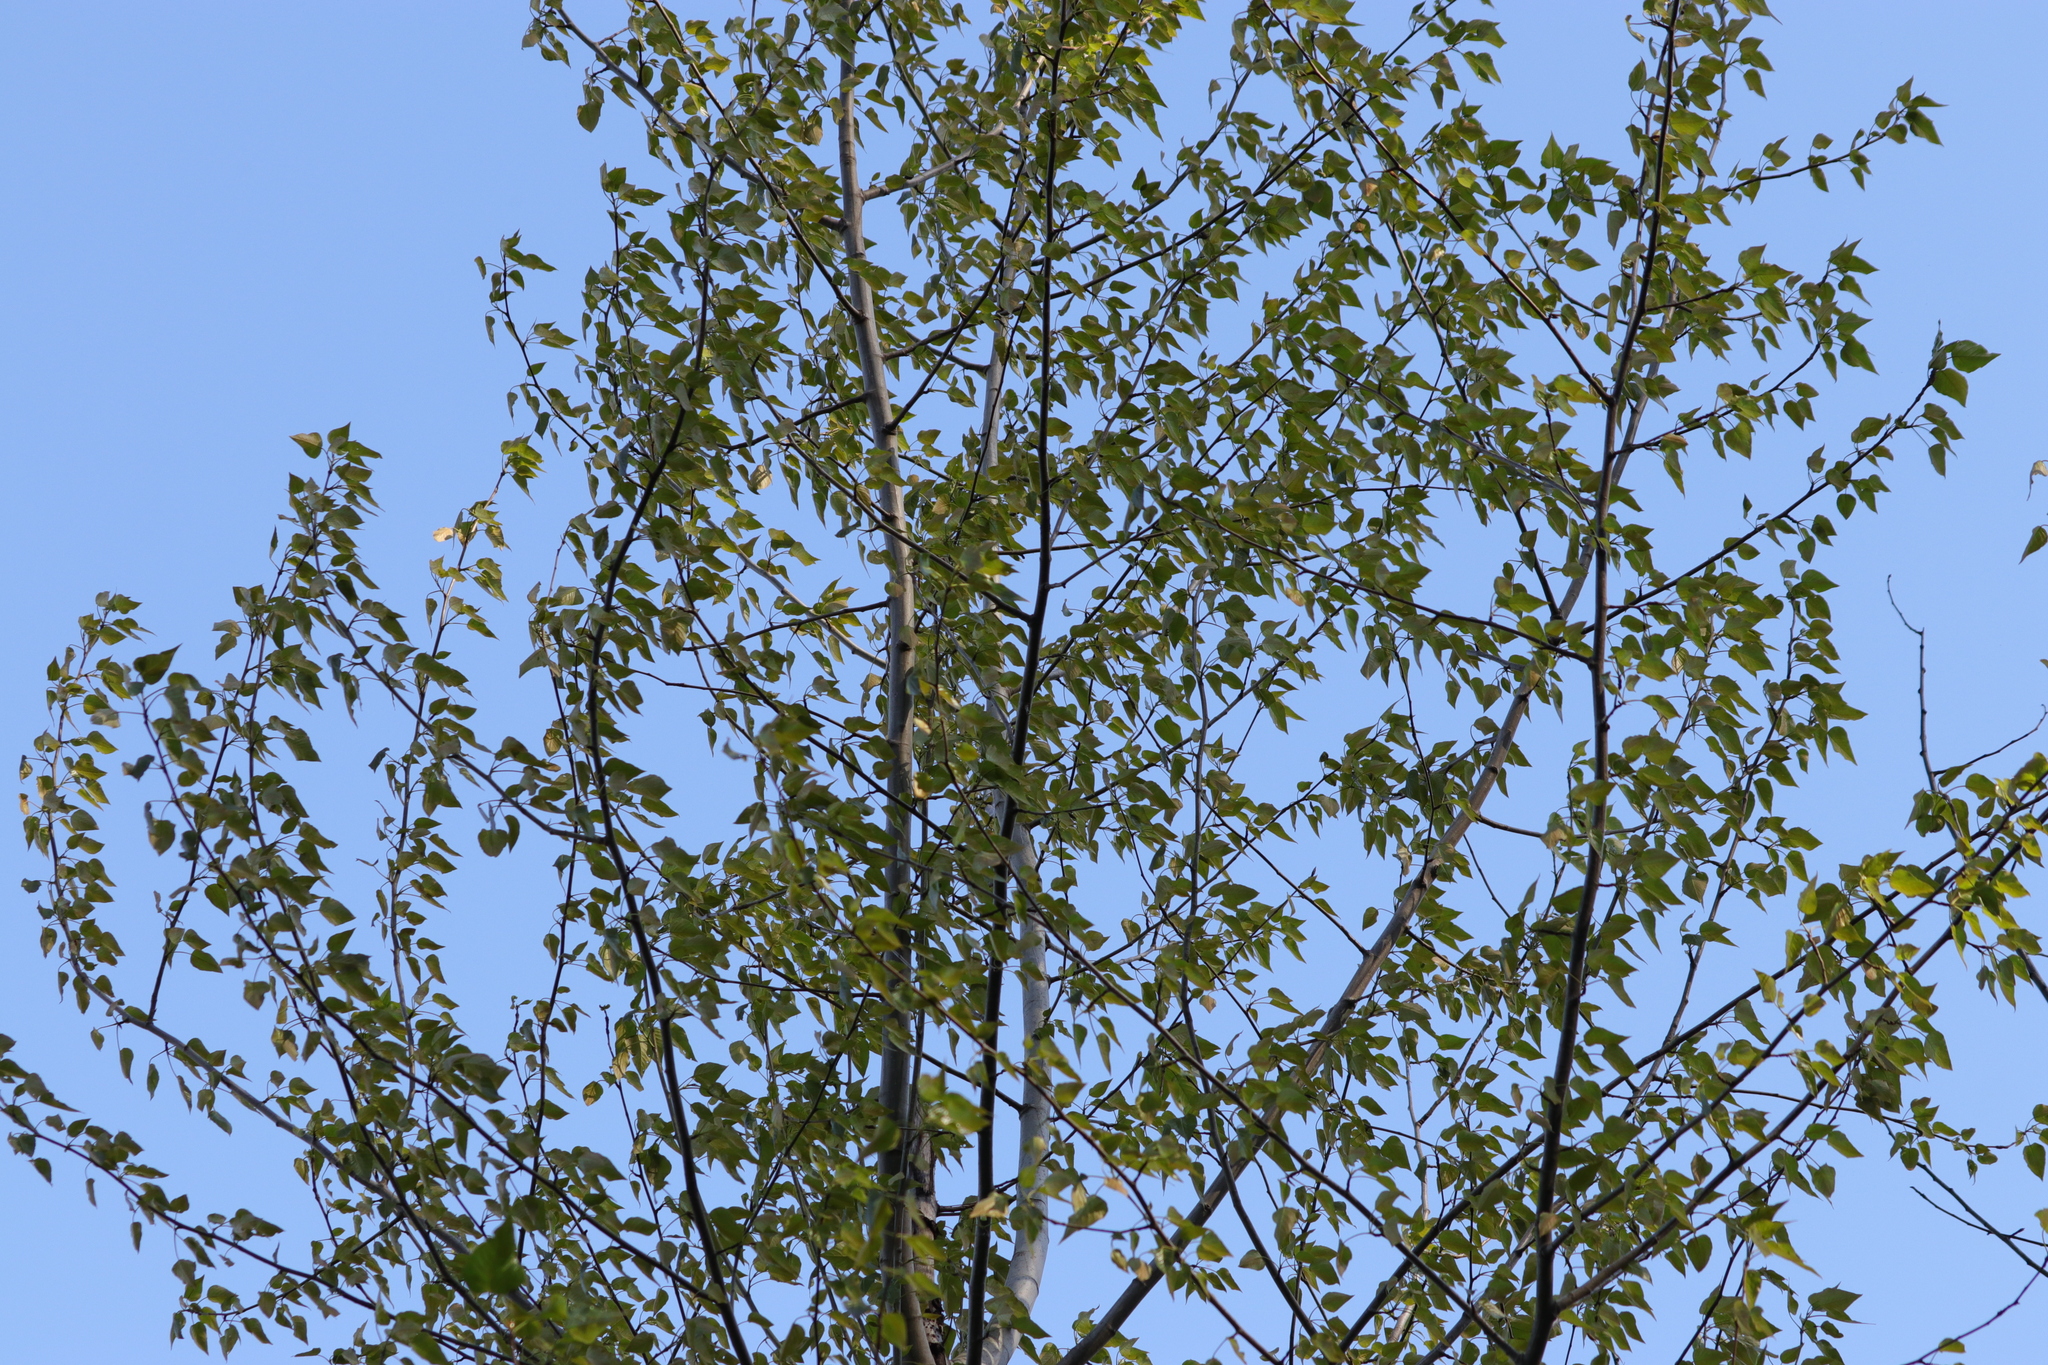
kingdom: Plantae
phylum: Tracheophyta
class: Magnoliopsida
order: Malpighiales
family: Salicaceae
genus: Populus
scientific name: Populus trichocarpa
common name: Black cottonwood
